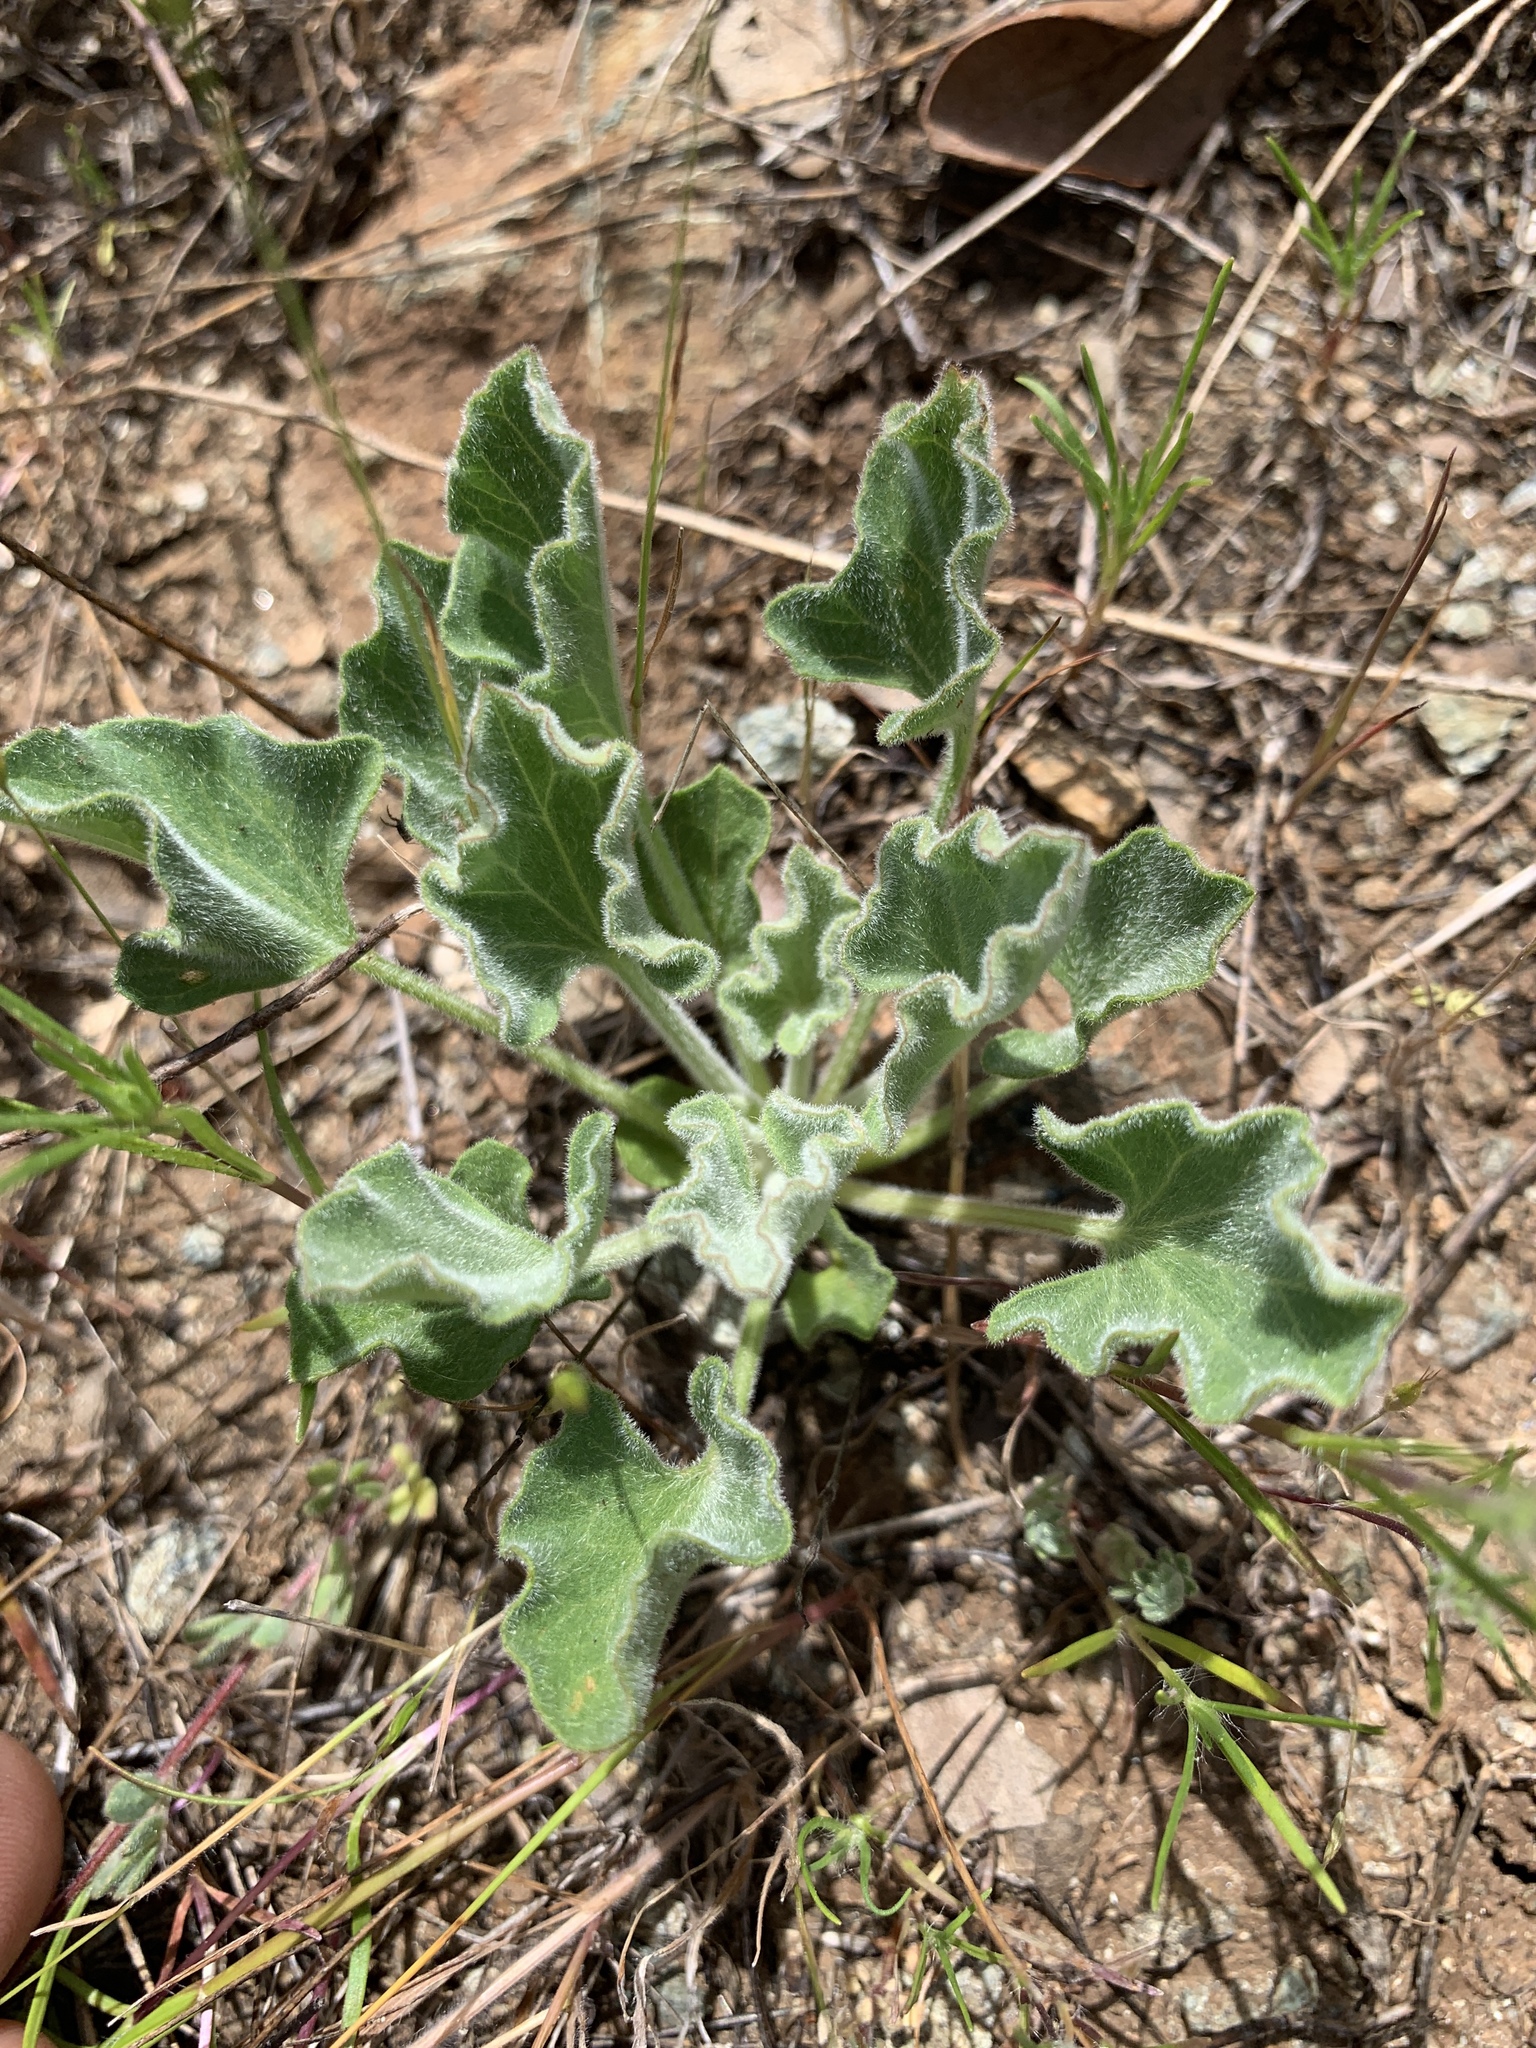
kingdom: Plantae
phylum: Tracheophyta
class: Magnoliopsida
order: Solanales
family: Convolvulaceae
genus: Calystegia
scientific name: Calystegia collina
